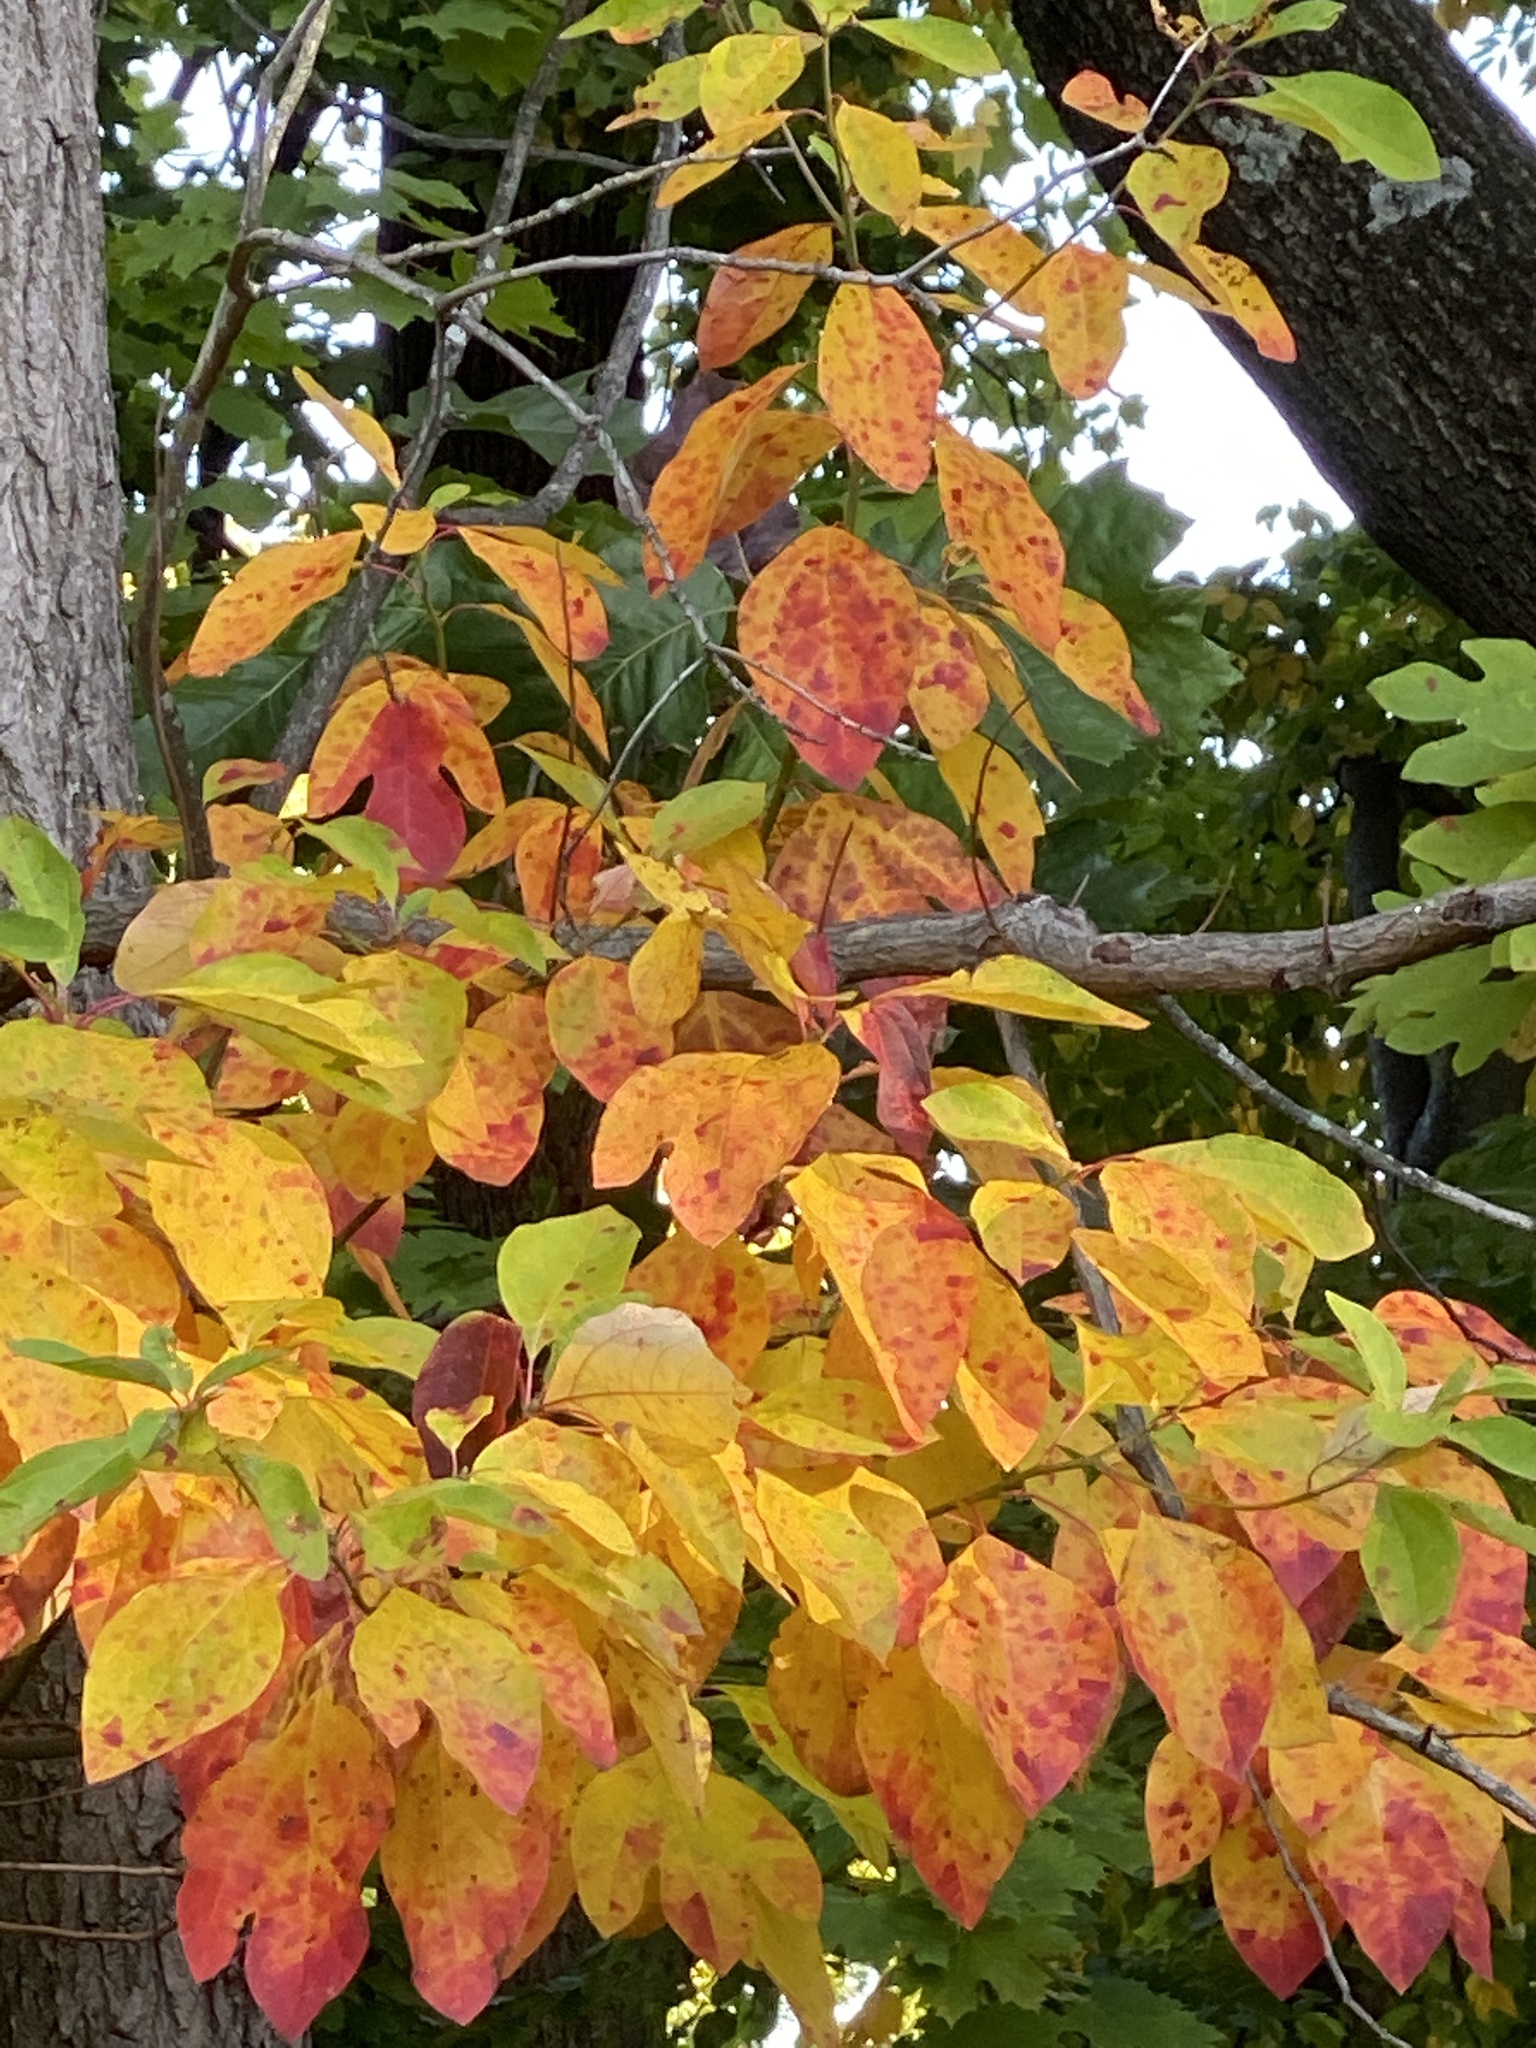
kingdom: Plantae
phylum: Tracheophyta
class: Magnoliopsida
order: Laurales
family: Lauraceae
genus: Sassafras
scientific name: Sassafras albidum
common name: Sassafras
